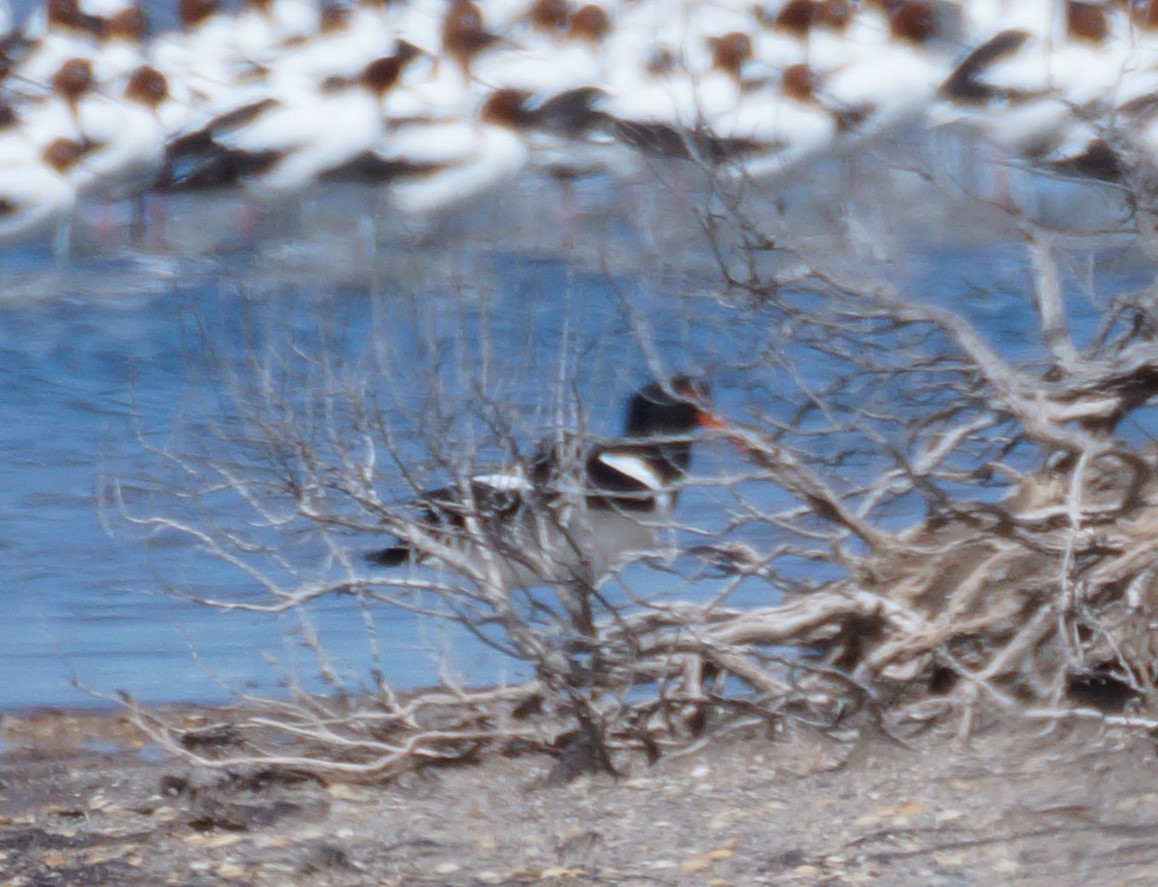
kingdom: Animalia
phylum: Chordata
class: Aves
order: Charadriiformes
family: Haematopodidae
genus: Haematopus
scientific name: Haematopus longirostris
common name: Pied oystercatcher
